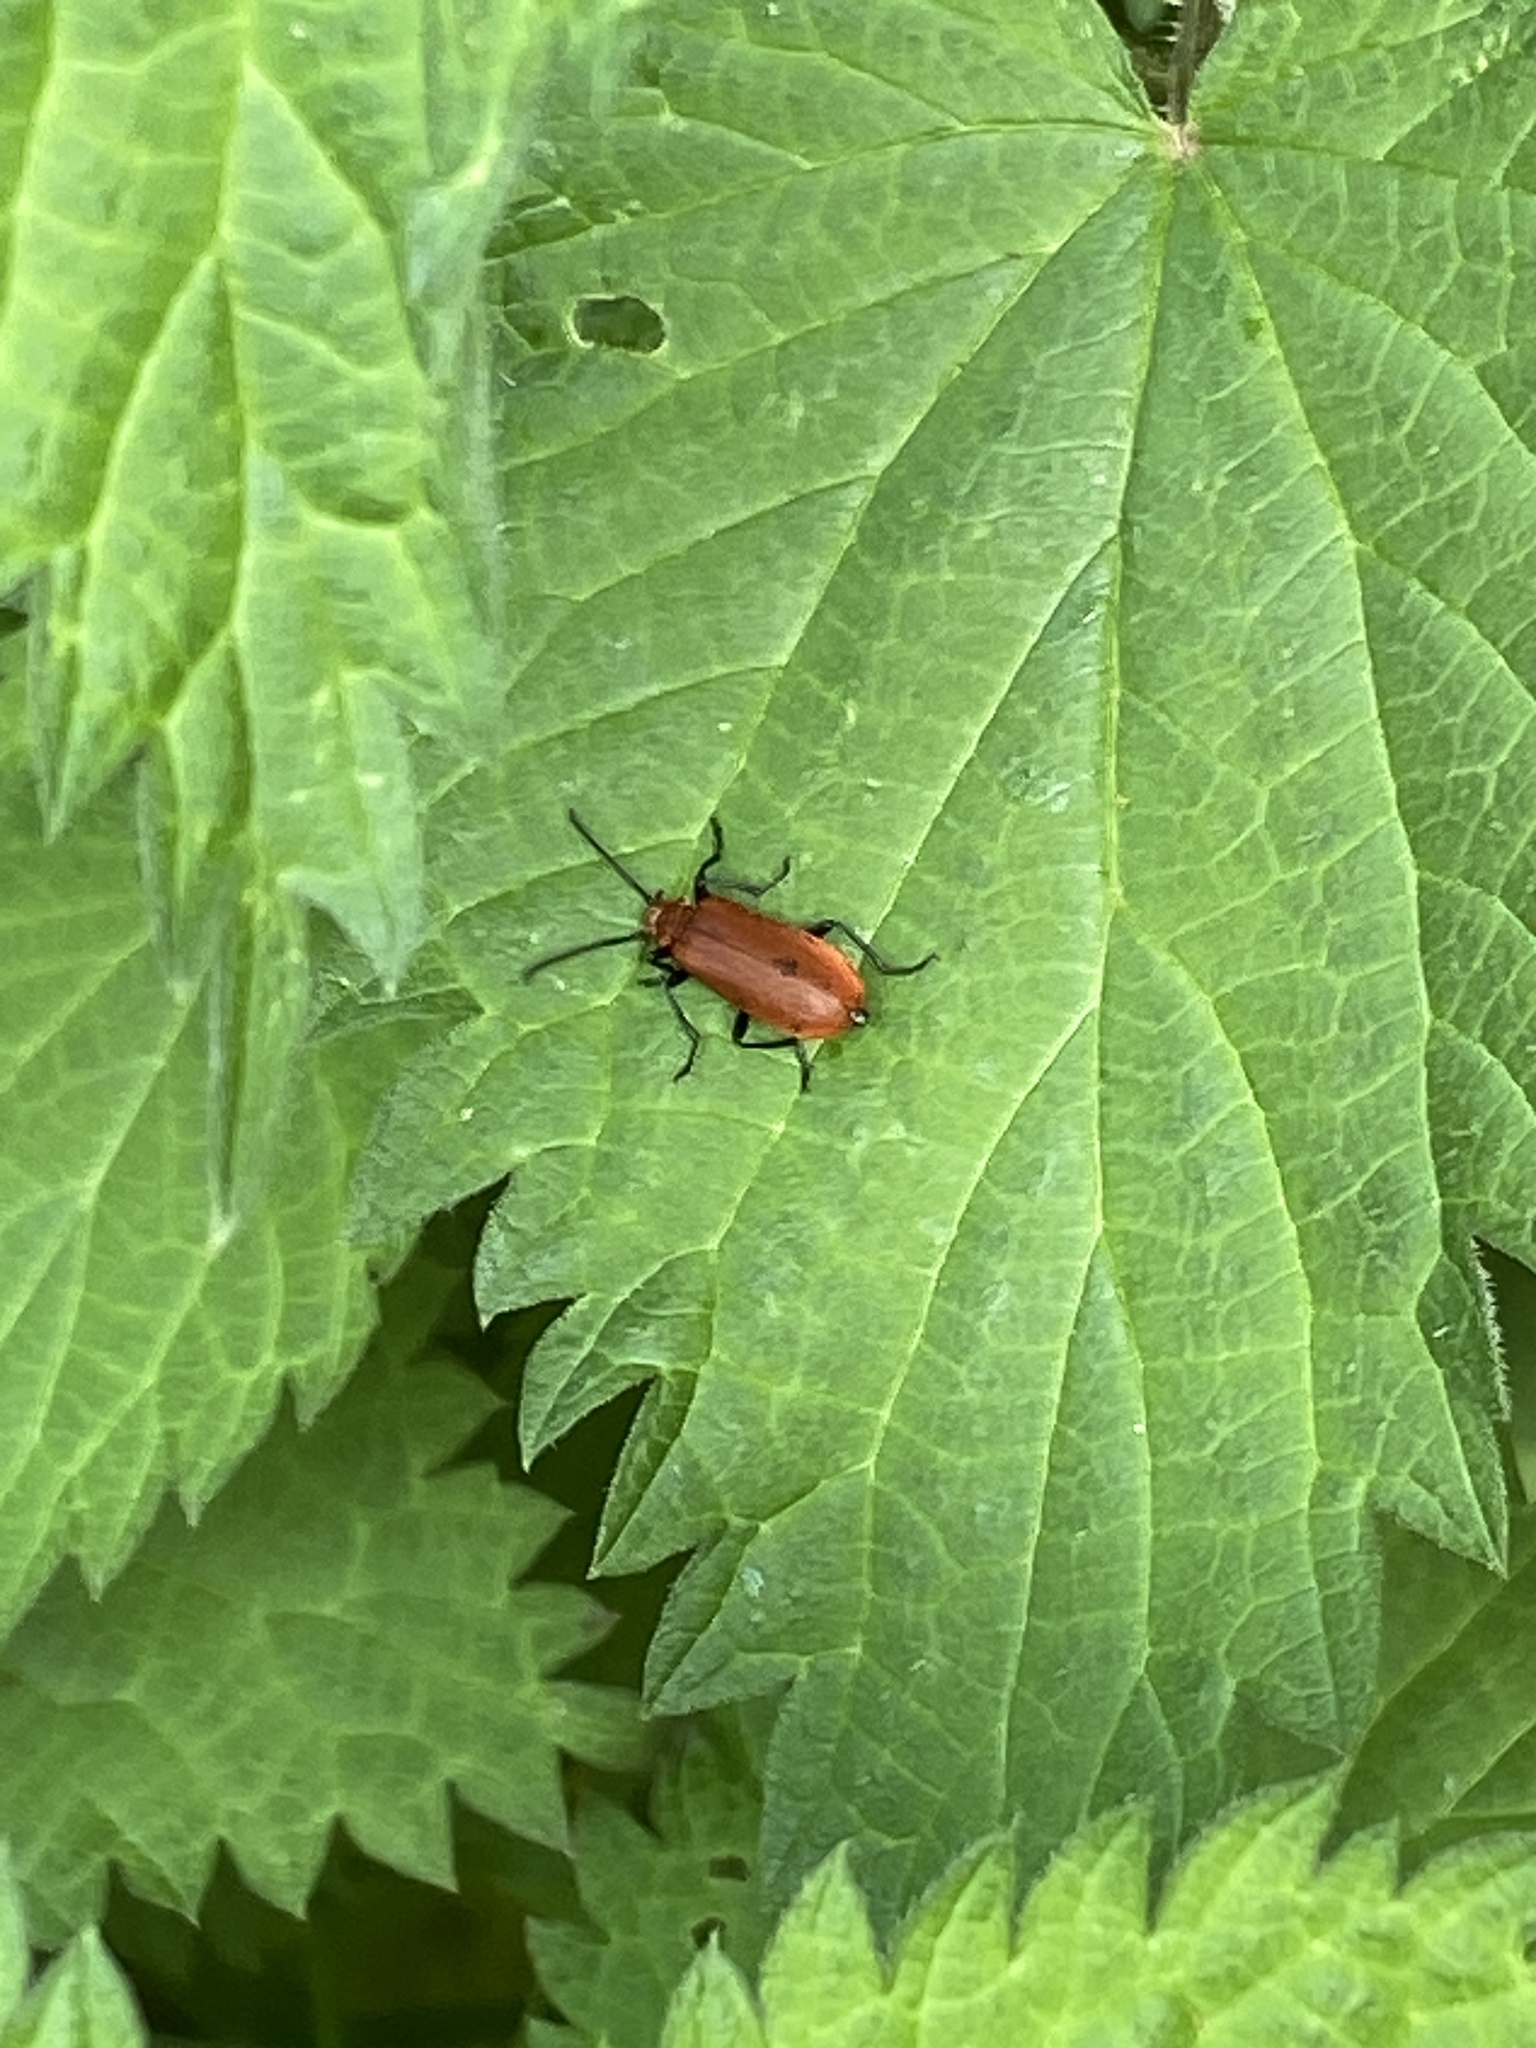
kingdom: Animalia
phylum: Arthropoda
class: Insecta
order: Coleoptera
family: Pyrochroidae
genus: Pyrochroa
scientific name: Pyrochroa serraticornis
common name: Red-headed cardinal beetle
